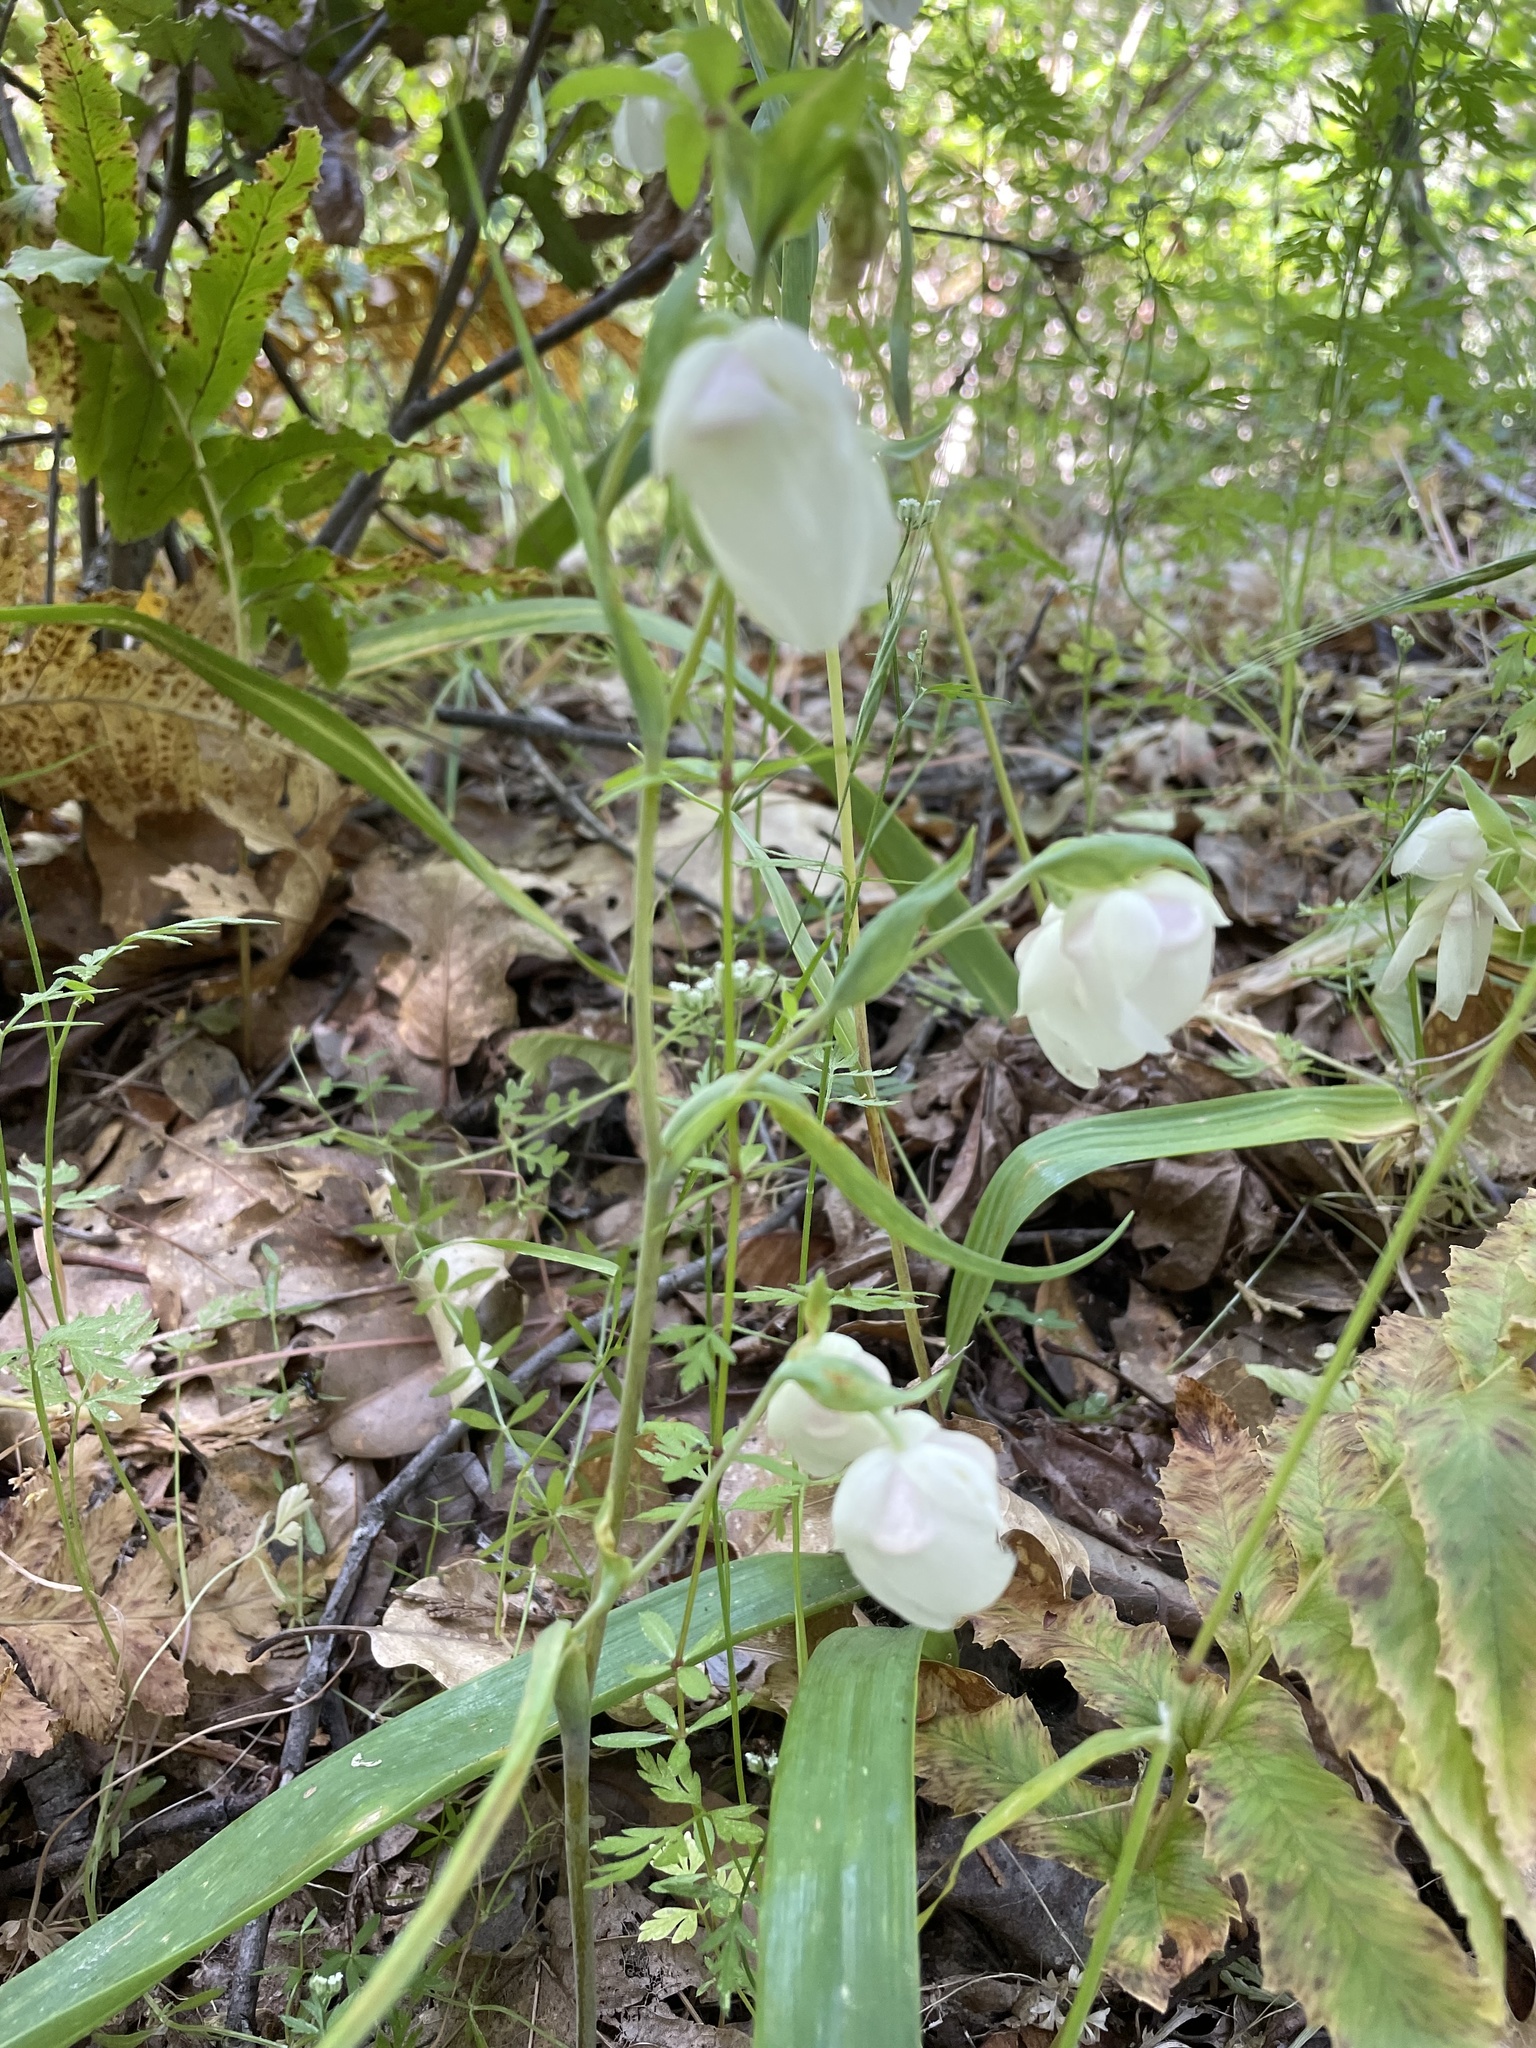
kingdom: Plantae
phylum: Tracheophyta
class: Liliopsida
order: Liliales
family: Liliaceae
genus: Calochortus
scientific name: Calochortus albus
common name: Fairy-lantern
